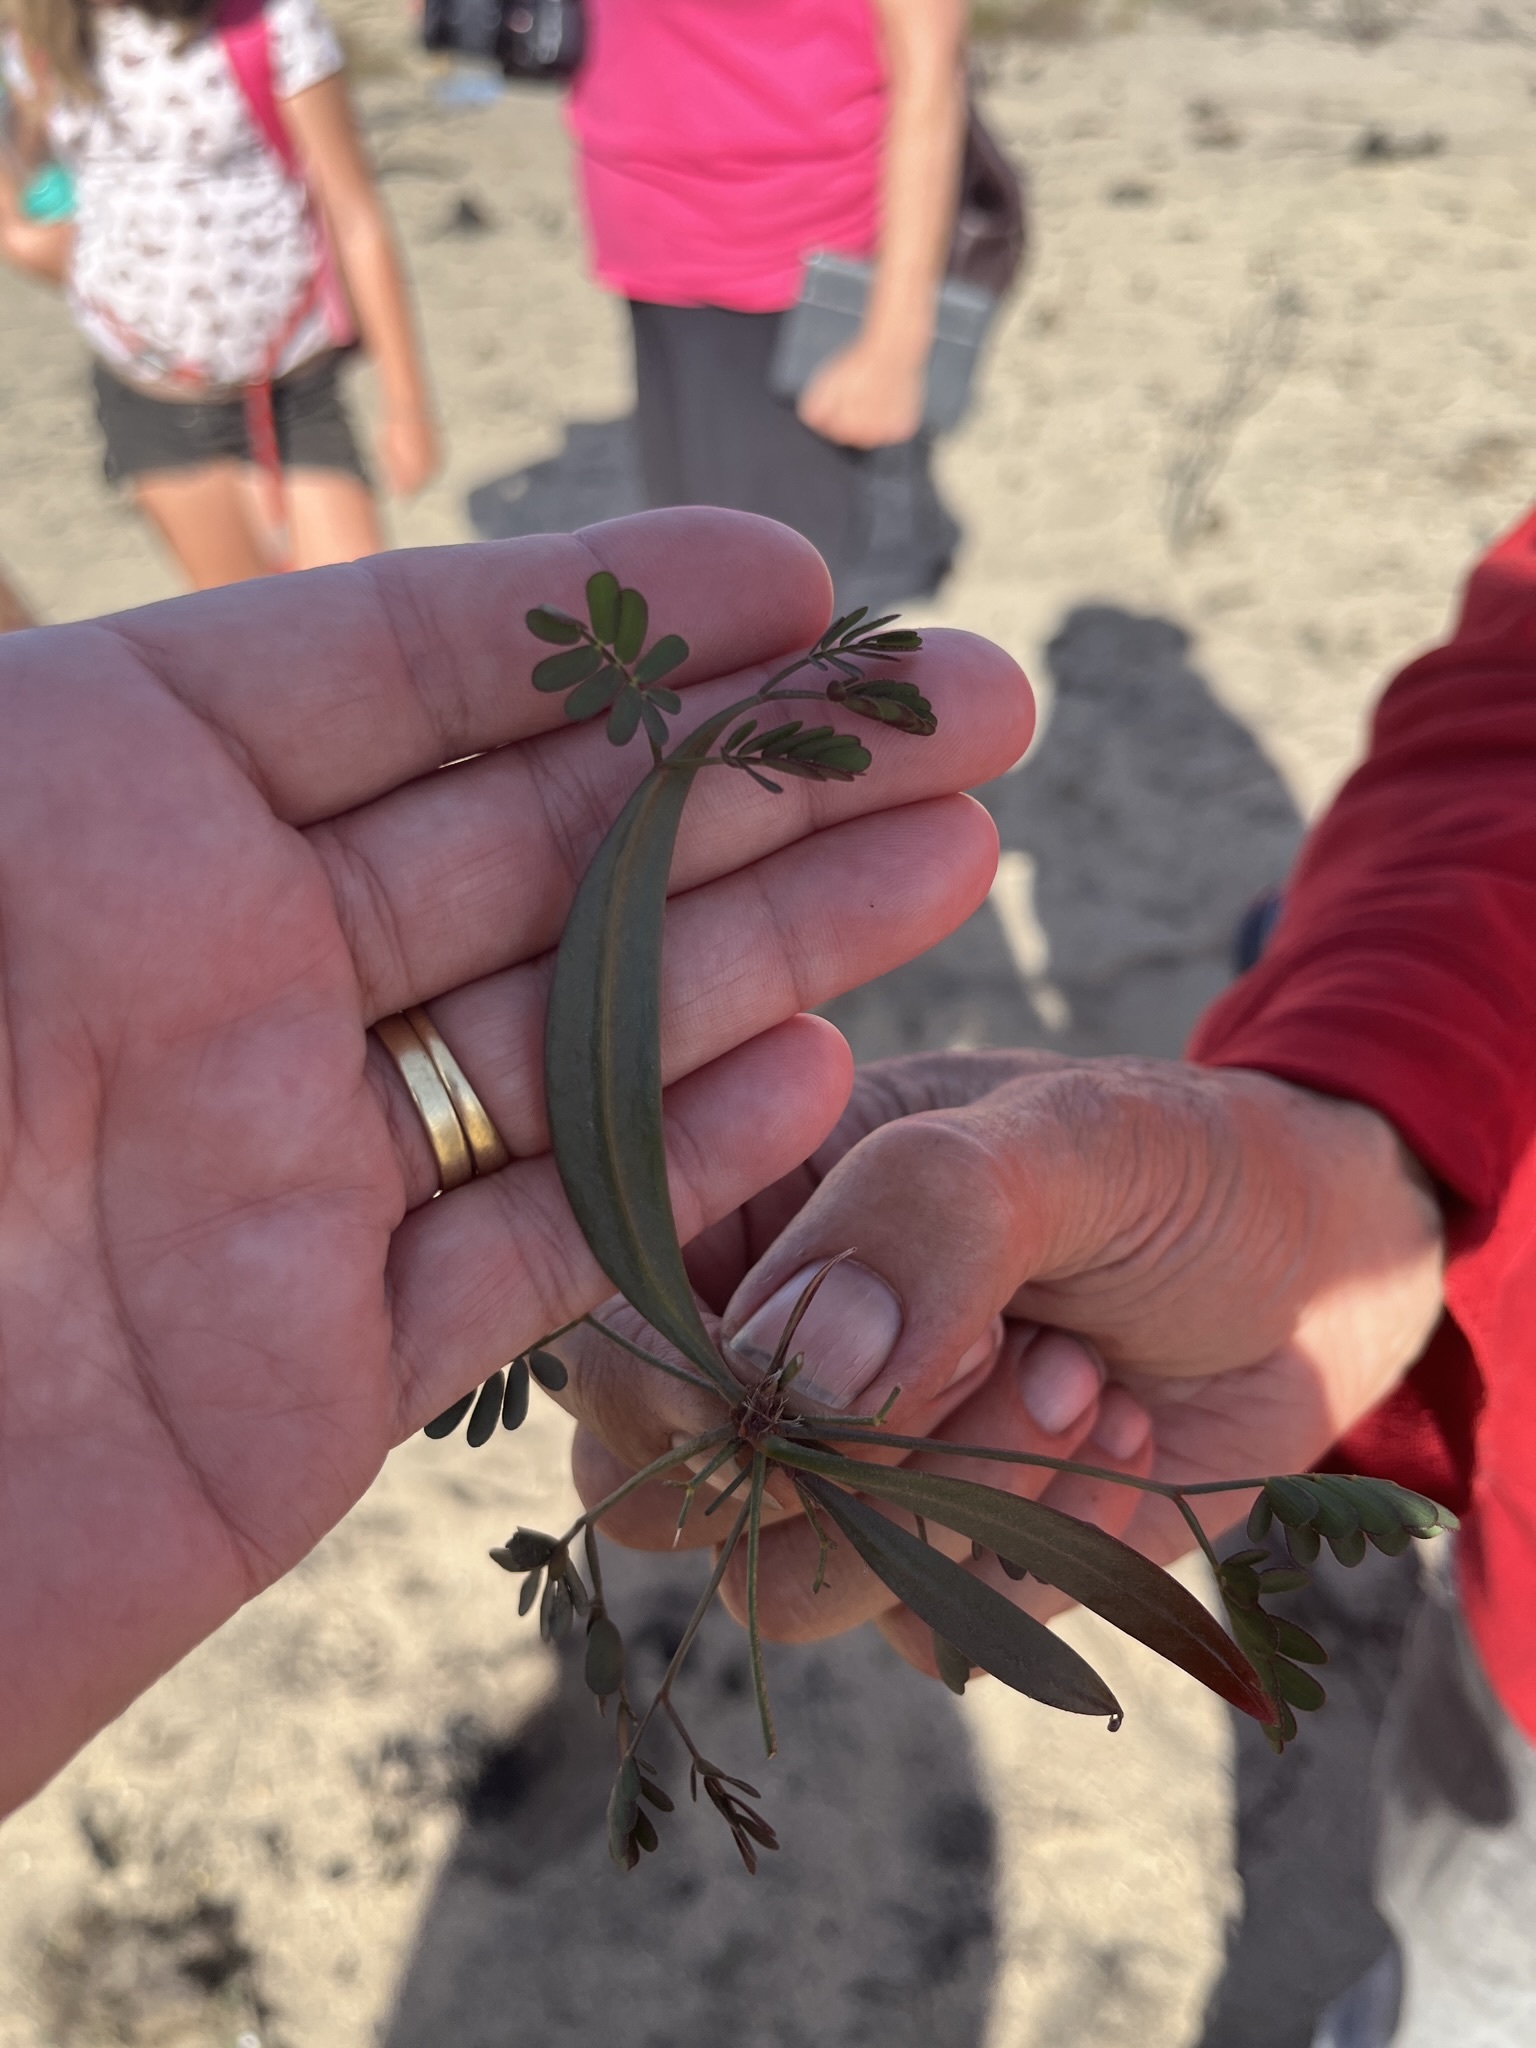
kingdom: Plantae
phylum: Tracheophyta
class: Magnoliopsida
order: Fabales
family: Fabaceae
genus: Acacia
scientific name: Acacia saligna
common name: Orange wattle
